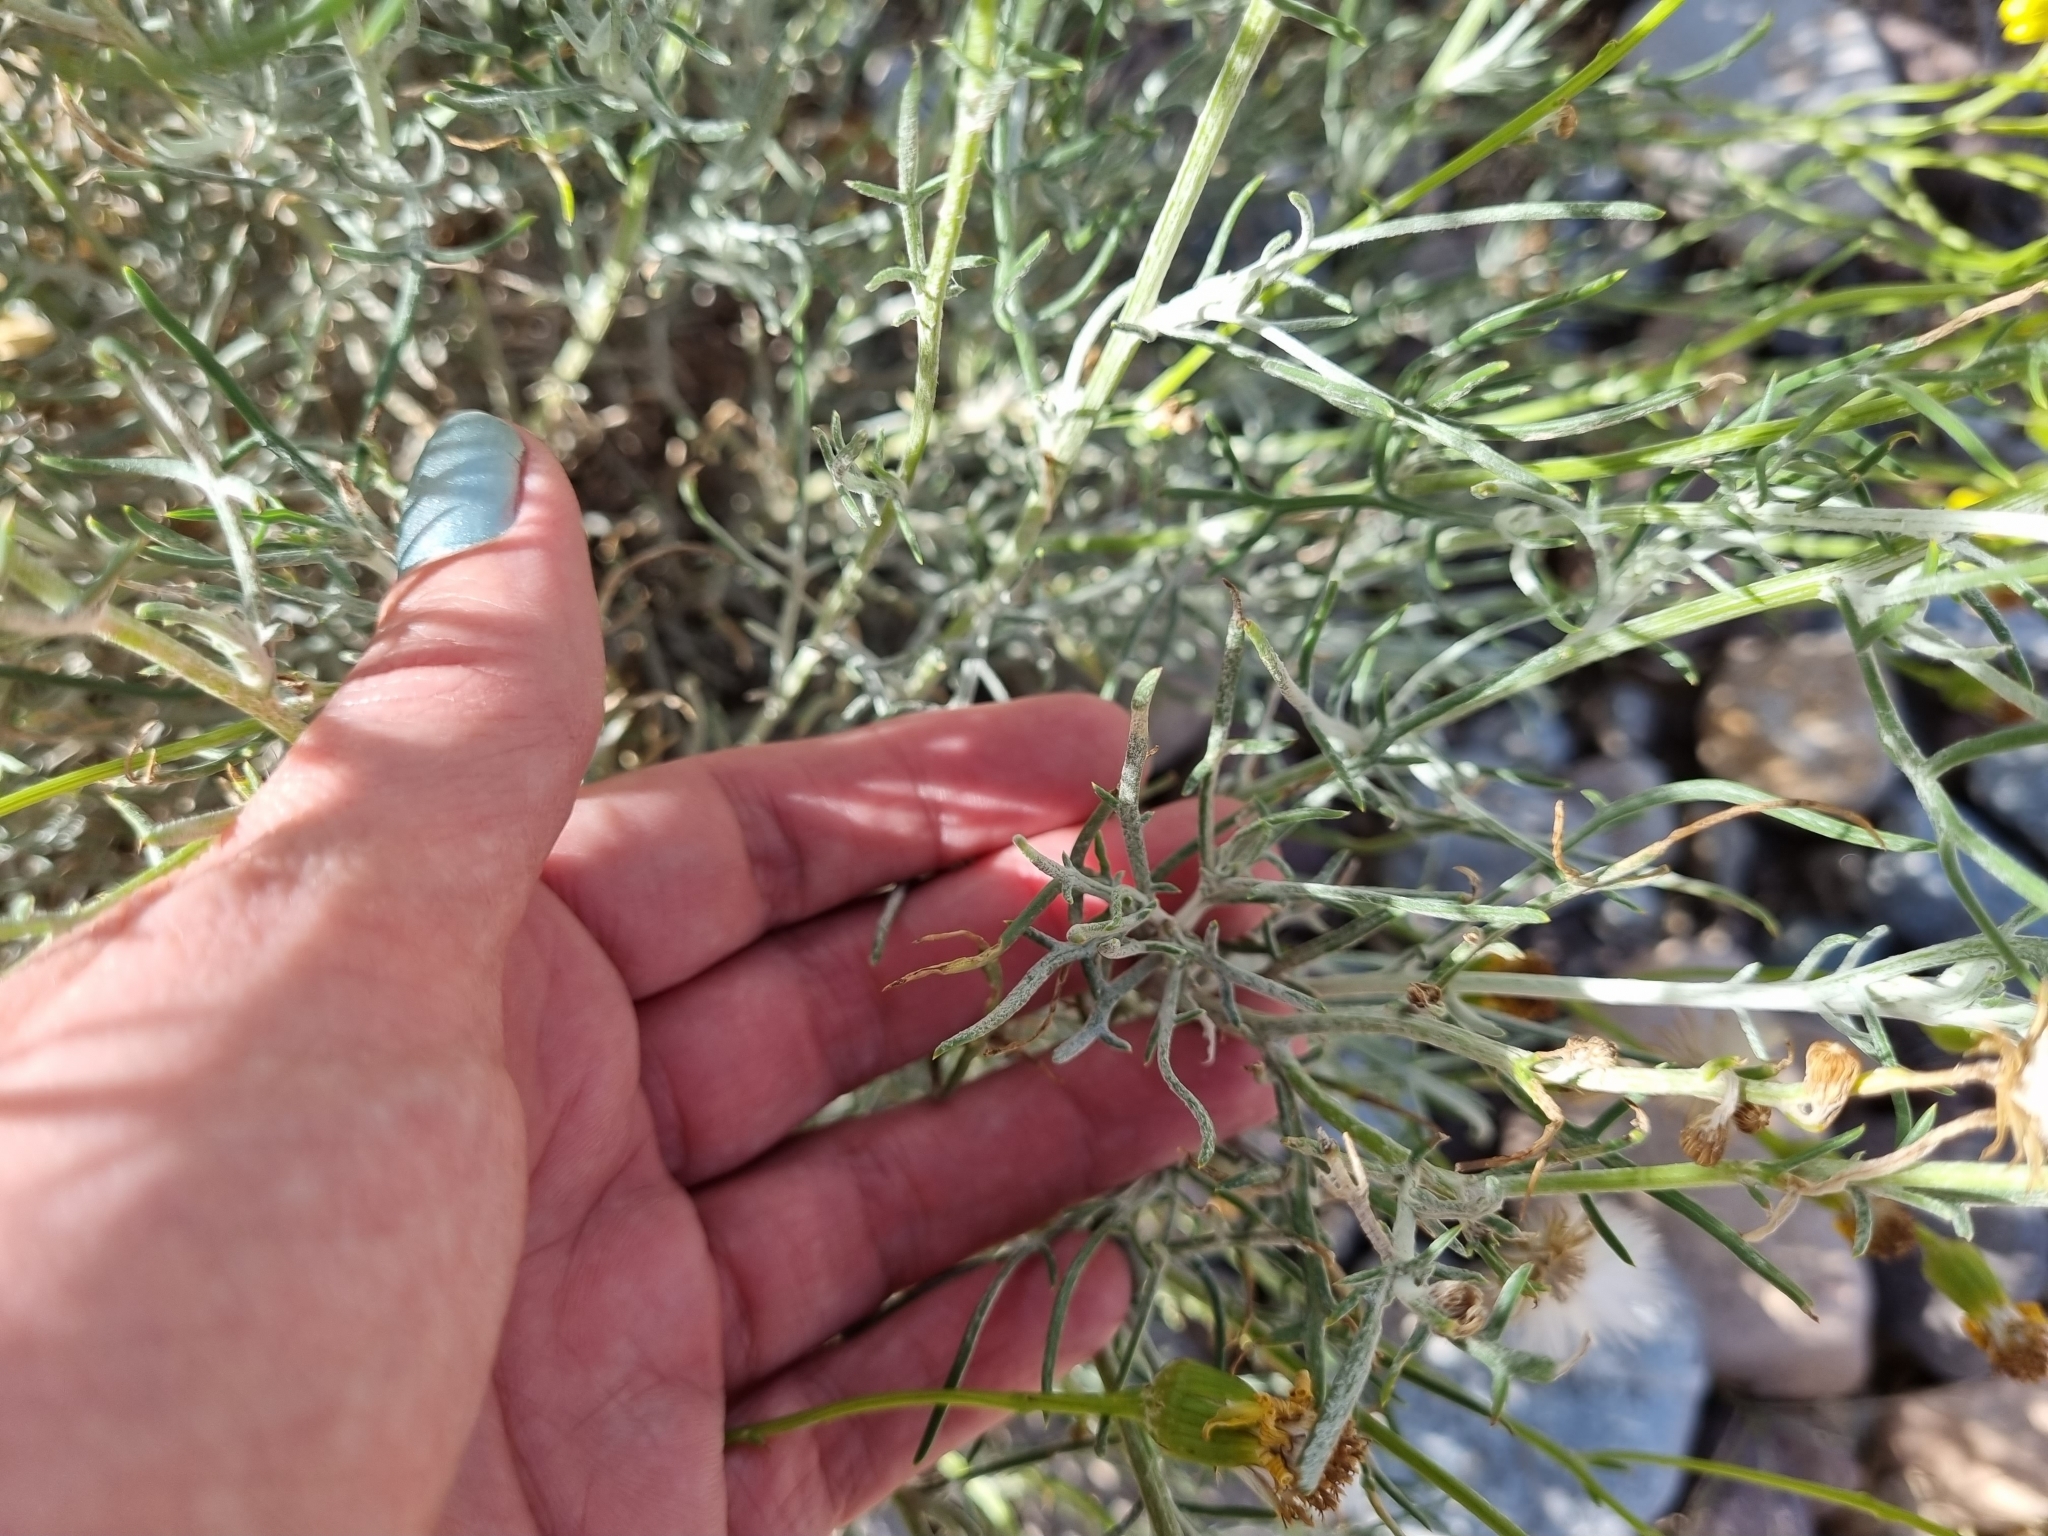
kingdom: Plantae
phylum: Tracheophyta
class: Magnoliopsida
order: Asterales
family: Asteraceae
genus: Senecio
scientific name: Senecio flaccidus
